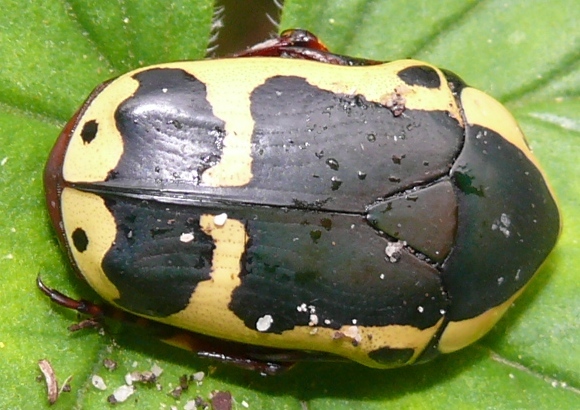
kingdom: Animalia
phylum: Arthropoda
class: Insecta
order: Coleoptera
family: Scarabaeidae
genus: Pachnoda
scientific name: Pachnoda sinuata
